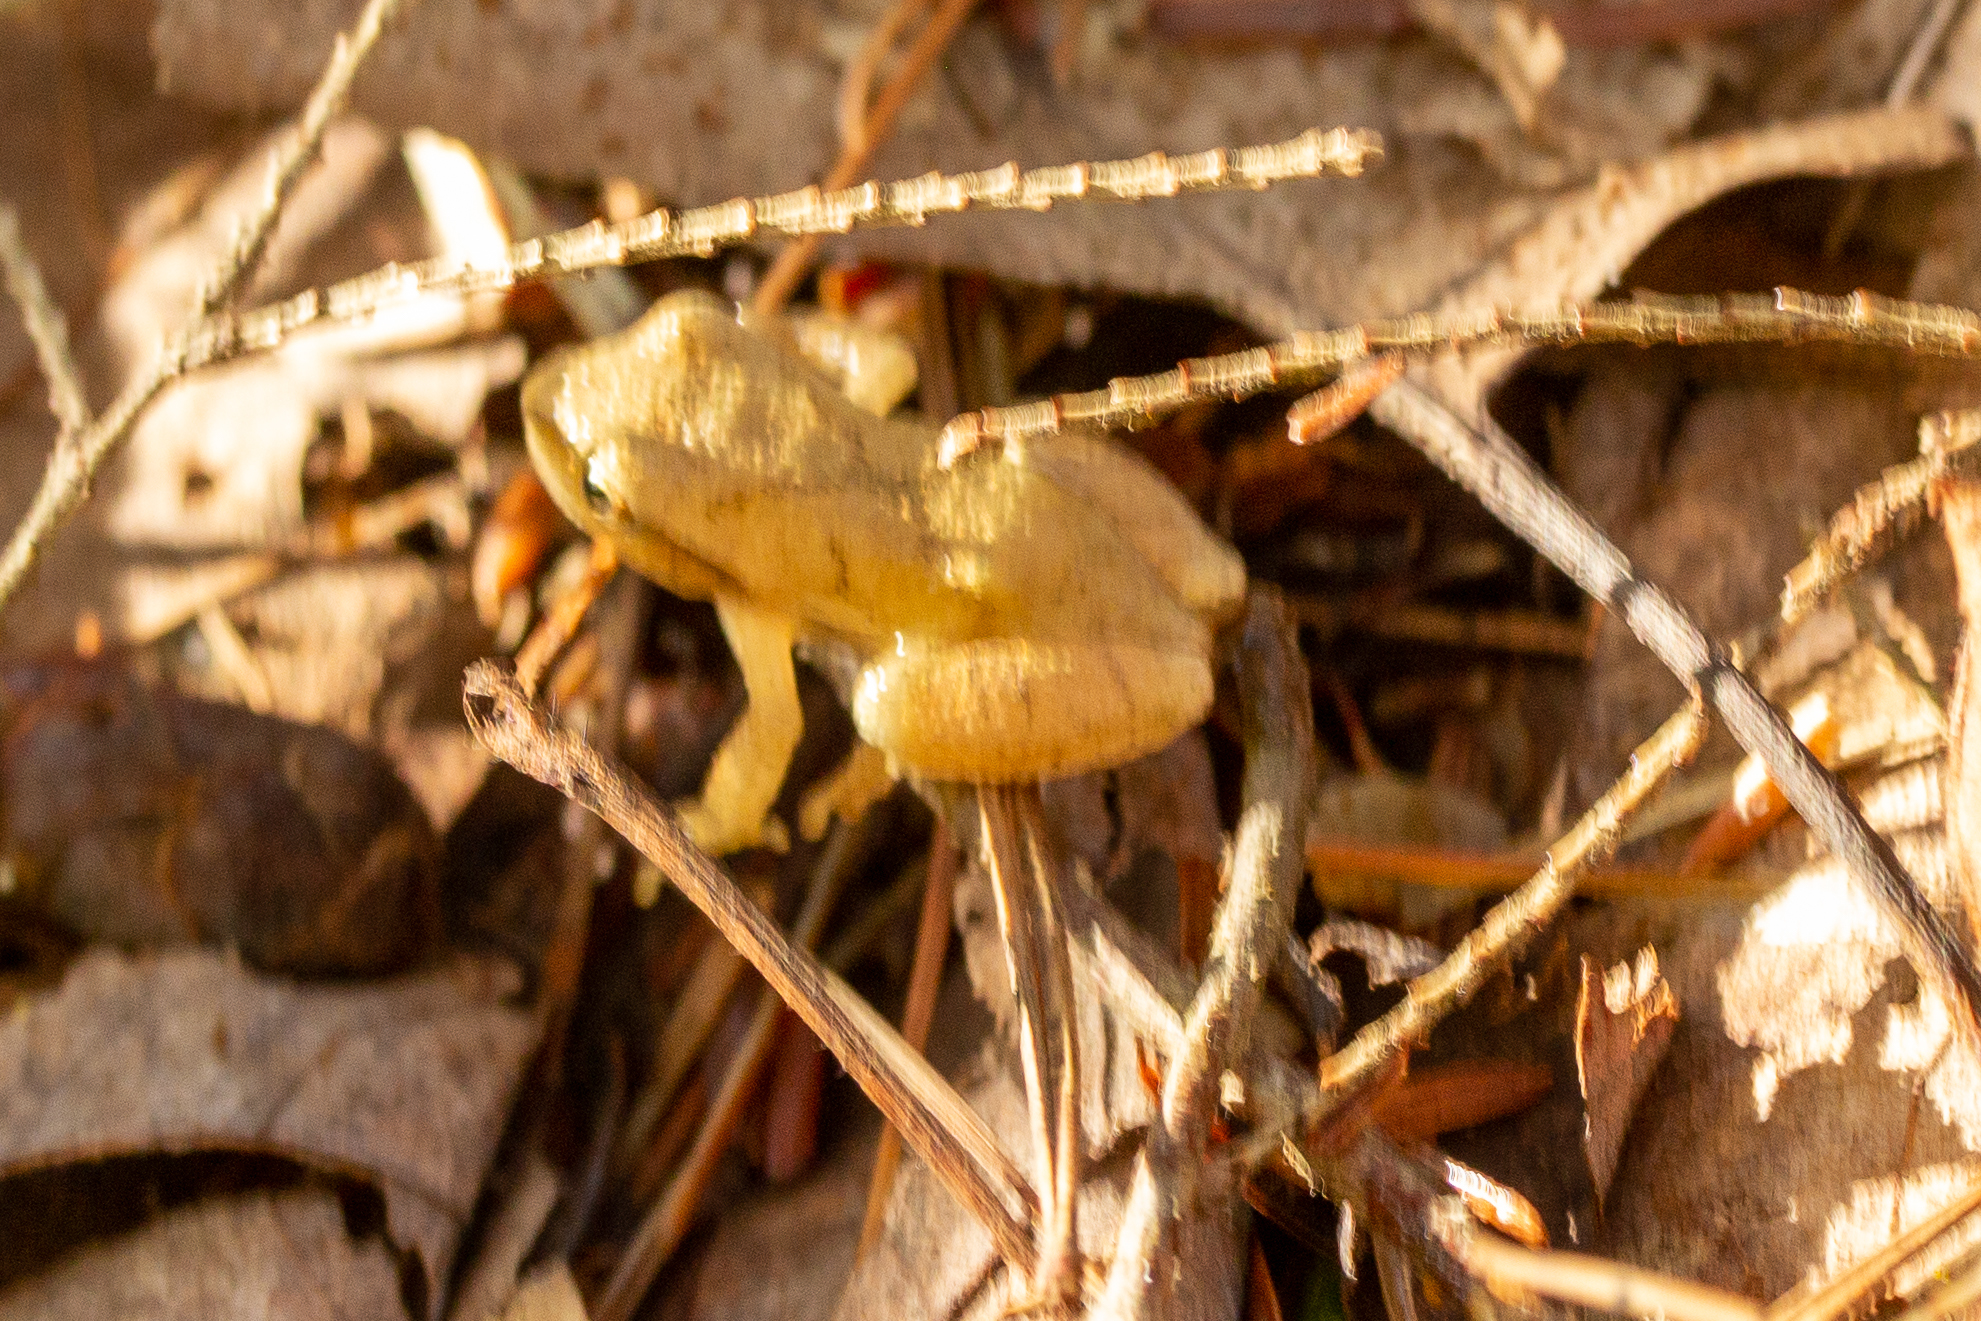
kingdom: Animalia
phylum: Chordata
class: Amphibia
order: Anura
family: Hylidae
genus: Pseudacris
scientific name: Pseudacris crucifer
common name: Spring peeper
